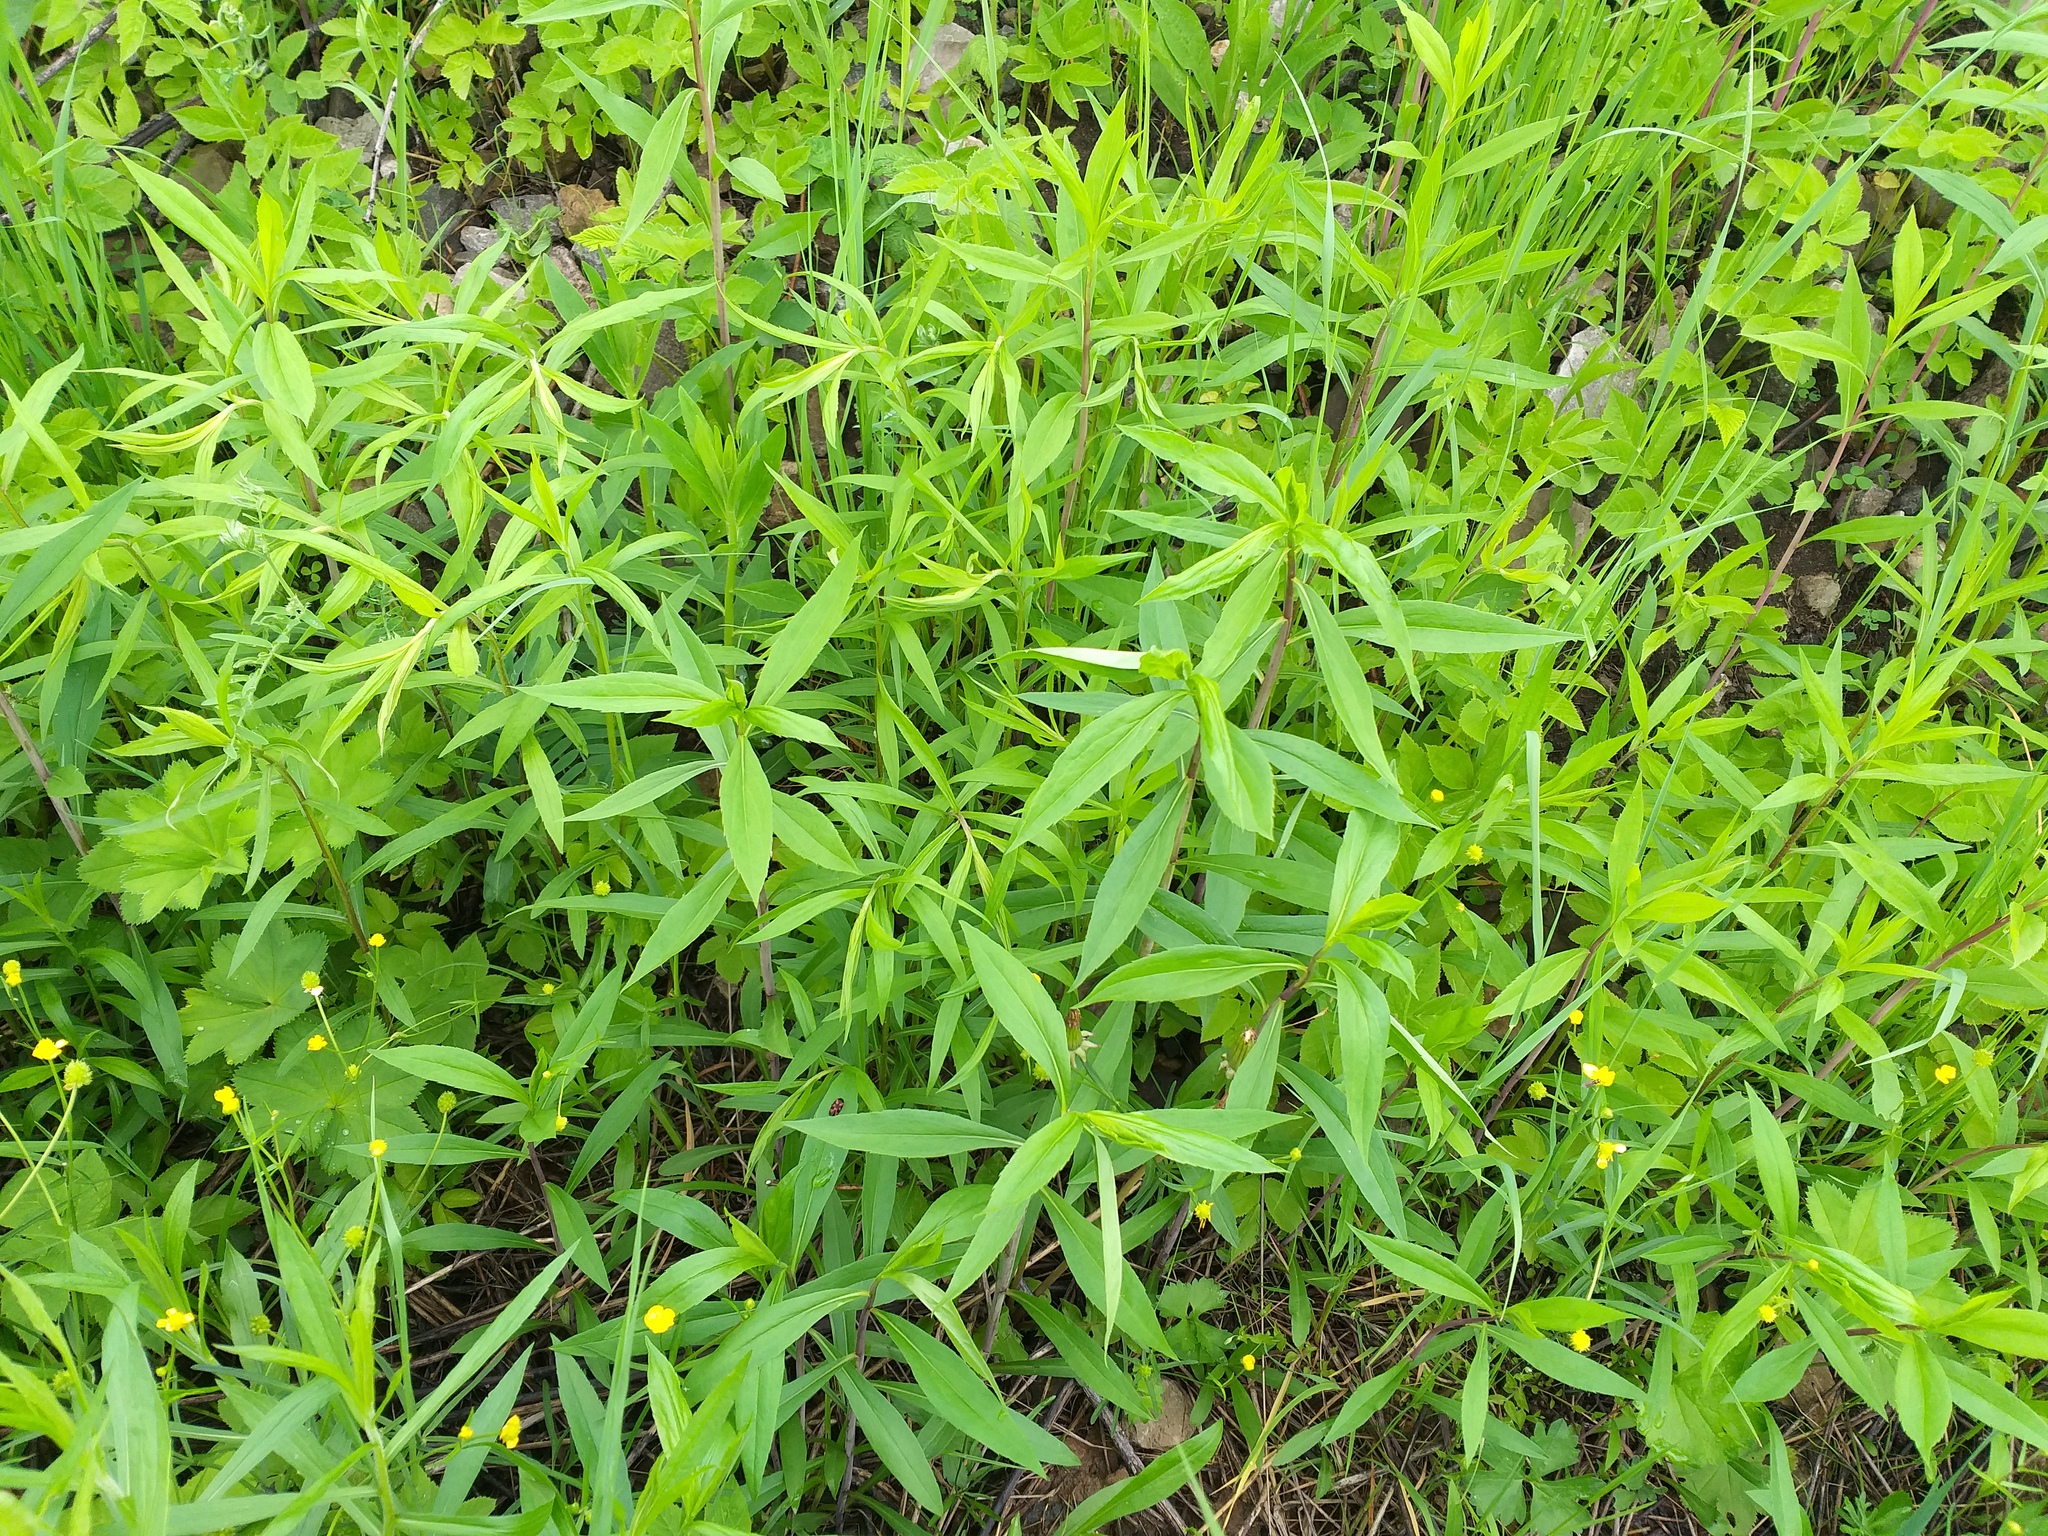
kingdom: Plantae
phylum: Tracheophyta
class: Magnoliopsida
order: Asterales
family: Asteraceae
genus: Solidago
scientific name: Solidago gigantea
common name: Giant goldenrod
